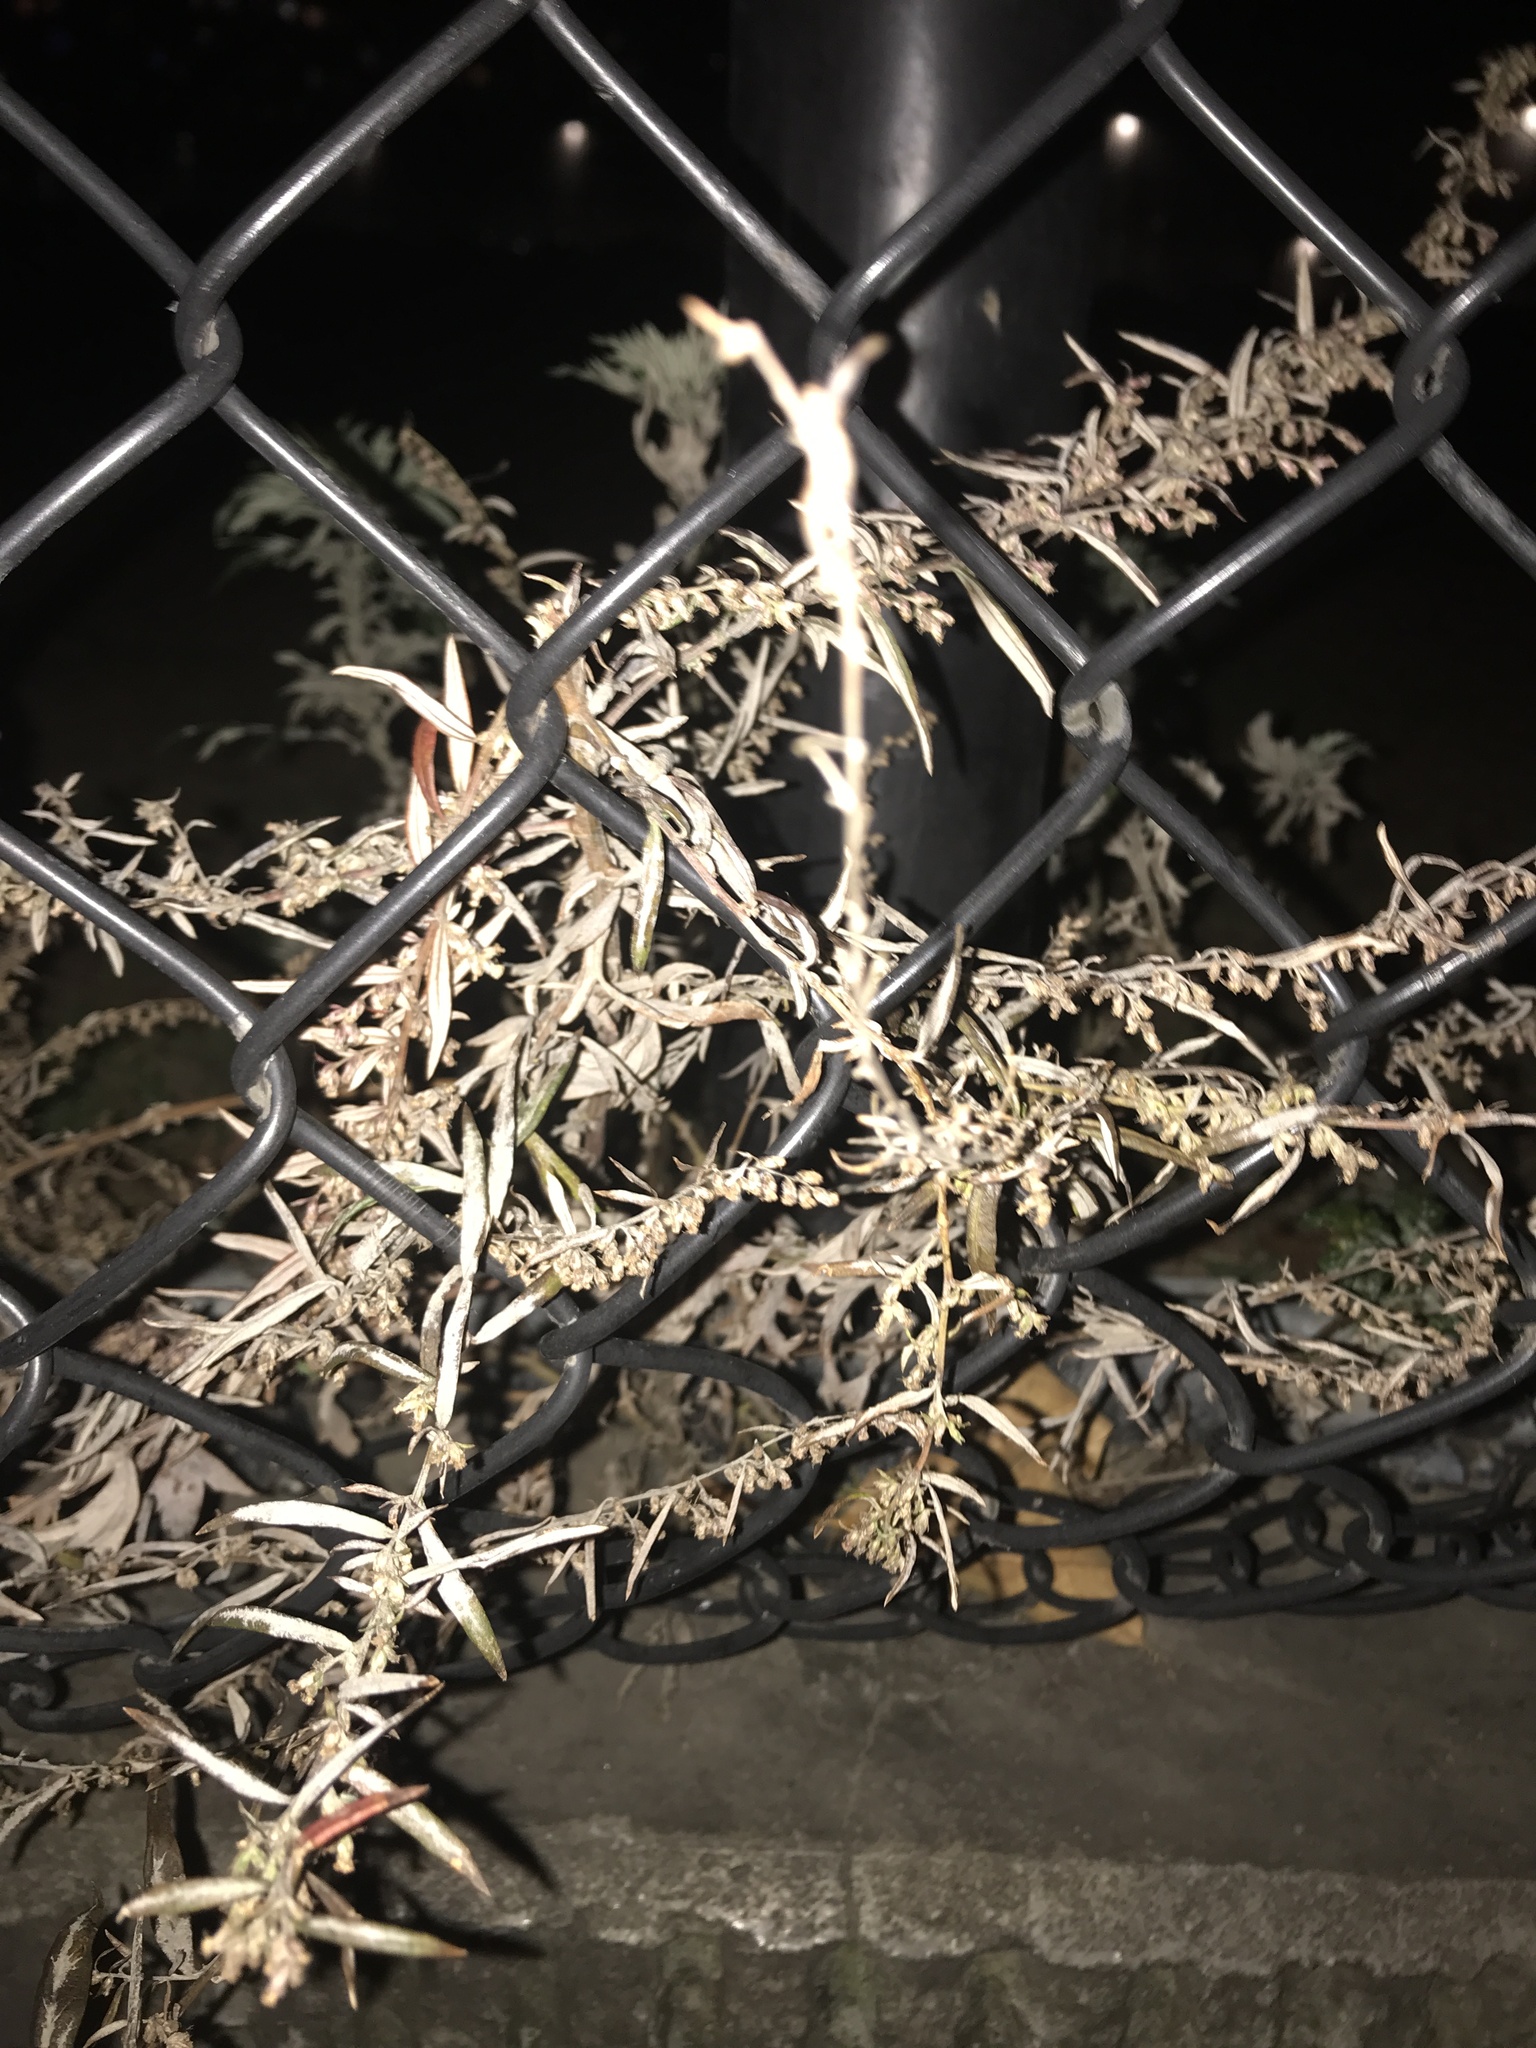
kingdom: Plantae
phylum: Tracheophyta
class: Magnoliopsida
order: Asterales
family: Asteraceae
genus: Artemisia
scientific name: Artemisia vulgaris
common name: Mugwort
